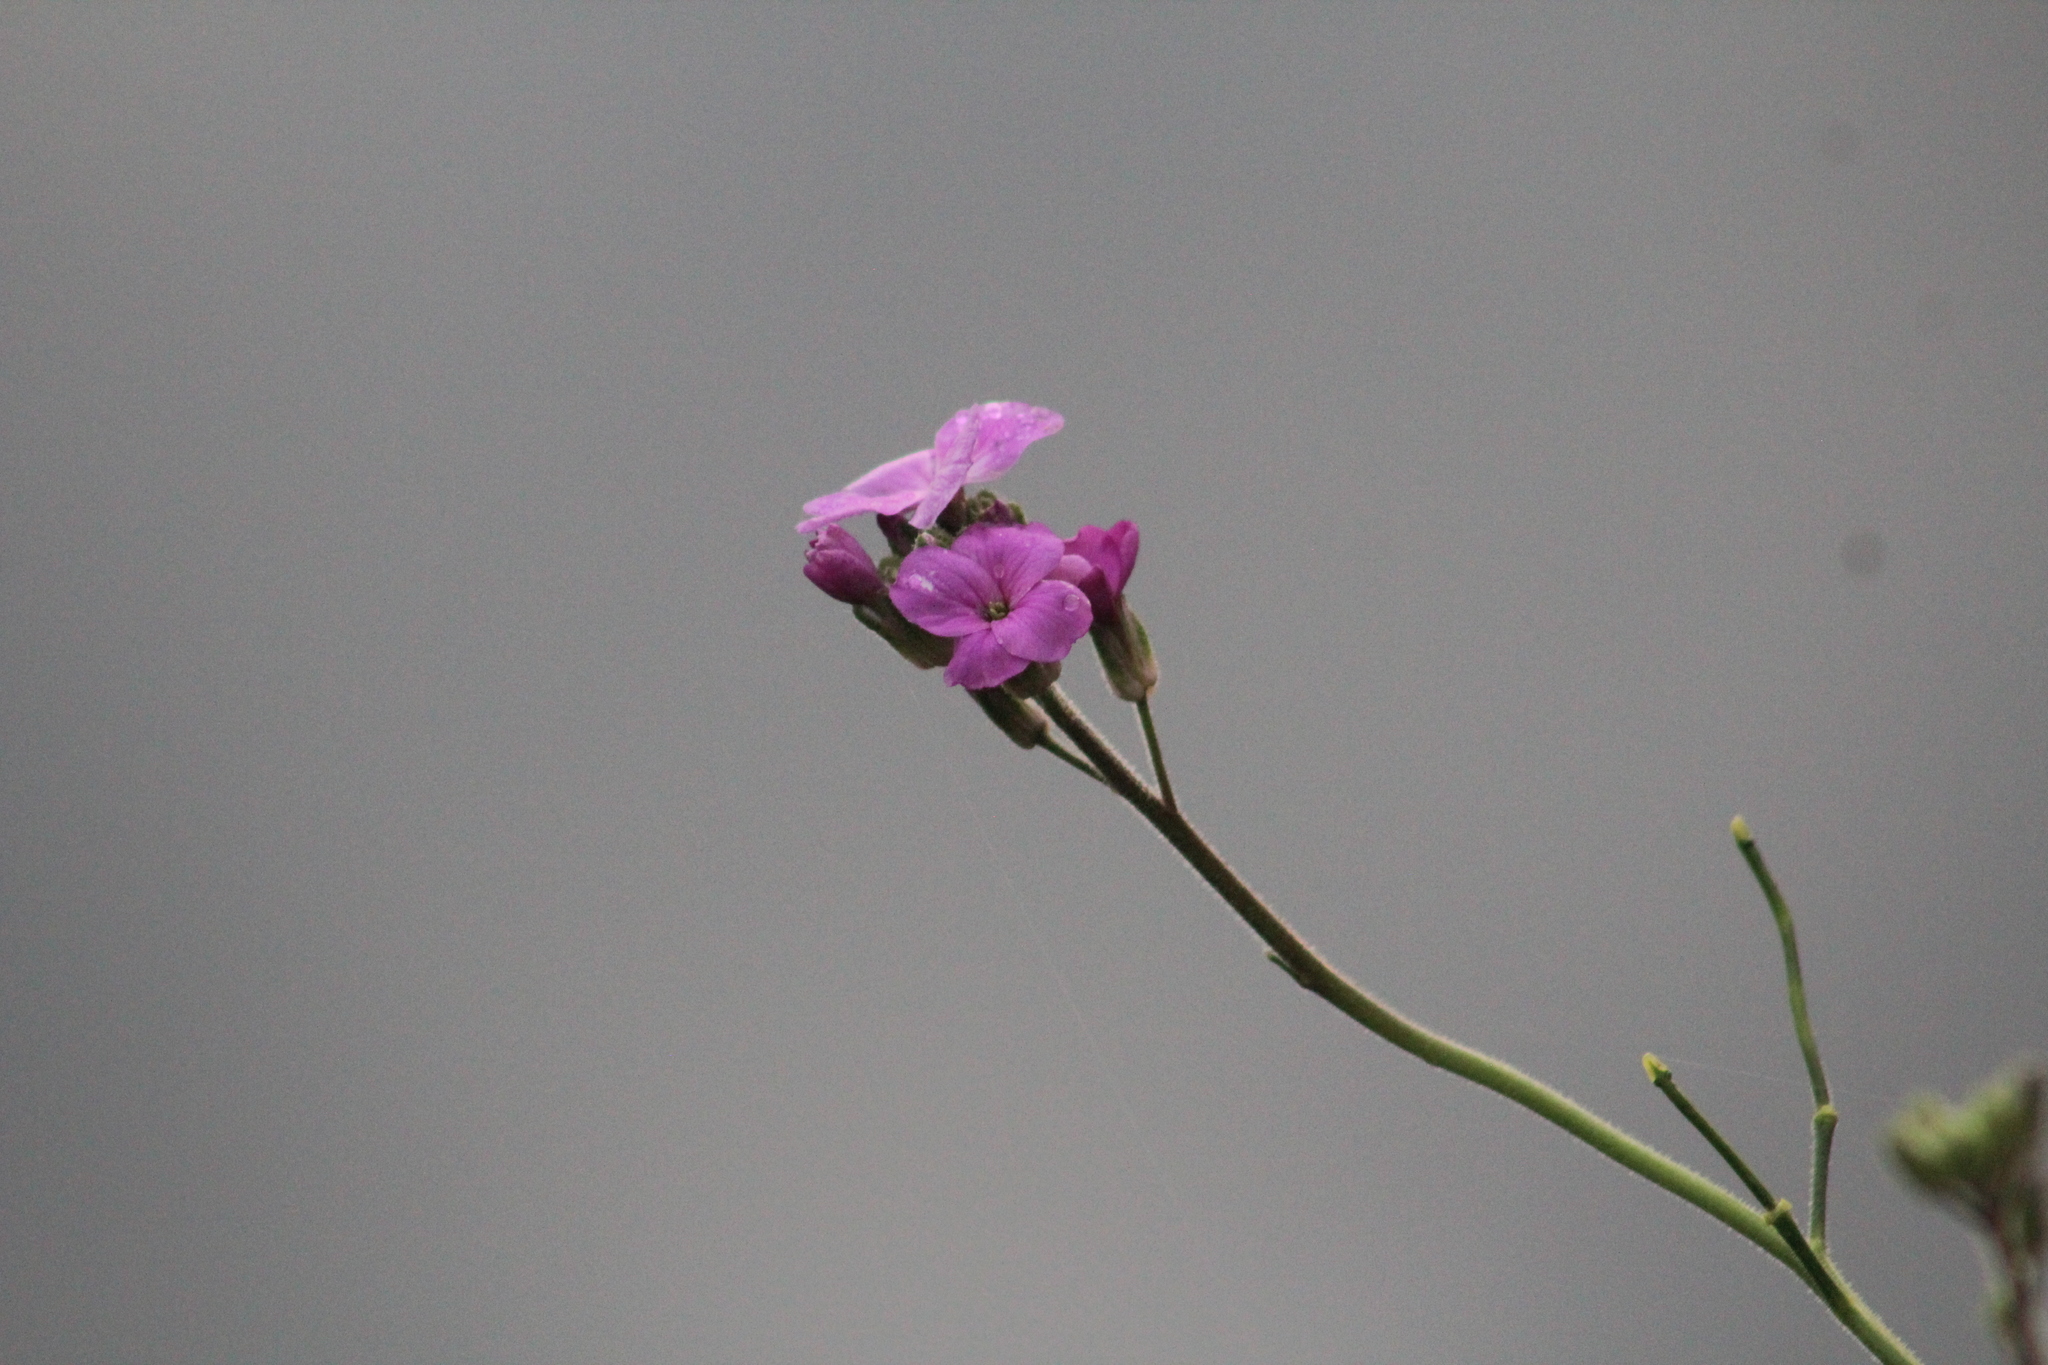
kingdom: Plantae
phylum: Tracheophyta
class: Magnoliopsida
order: Brassicales
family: Brassicaceae
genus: Hesperis
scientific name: Hesperis matronalis
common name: Dame's-violet
